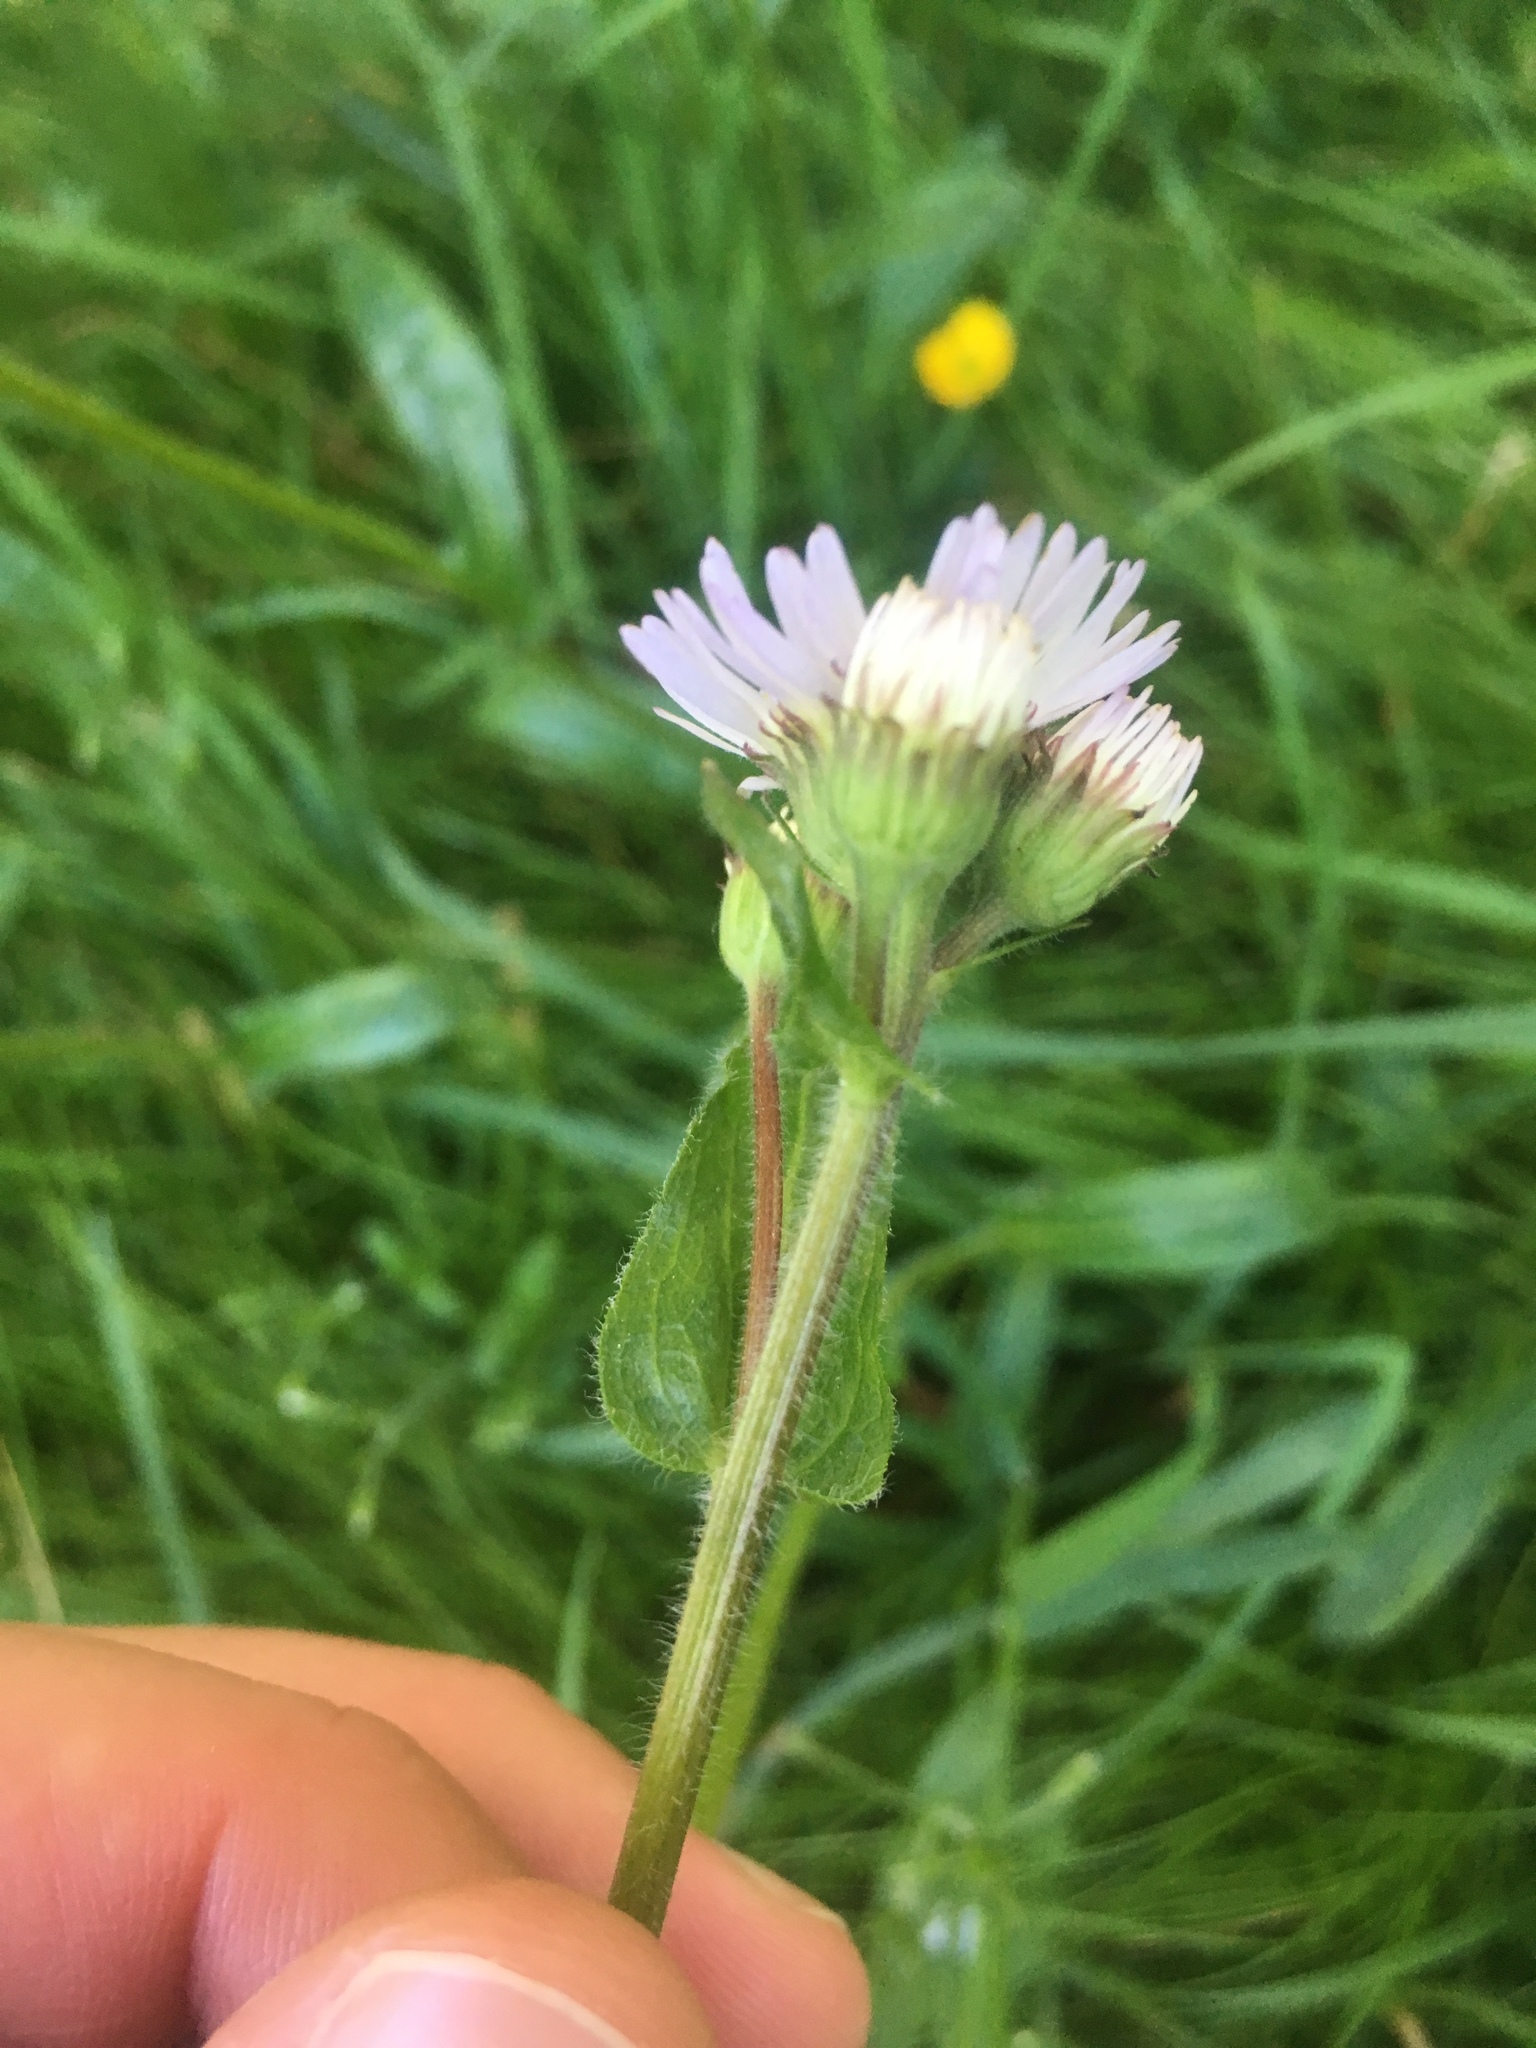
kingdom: Plantae
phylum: Tracheophyta
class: Magnoliopsida
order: Asterales
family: Asteraceae
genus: Erigeron
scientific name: Erigeron pulchellus
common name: Hairy fleabane
